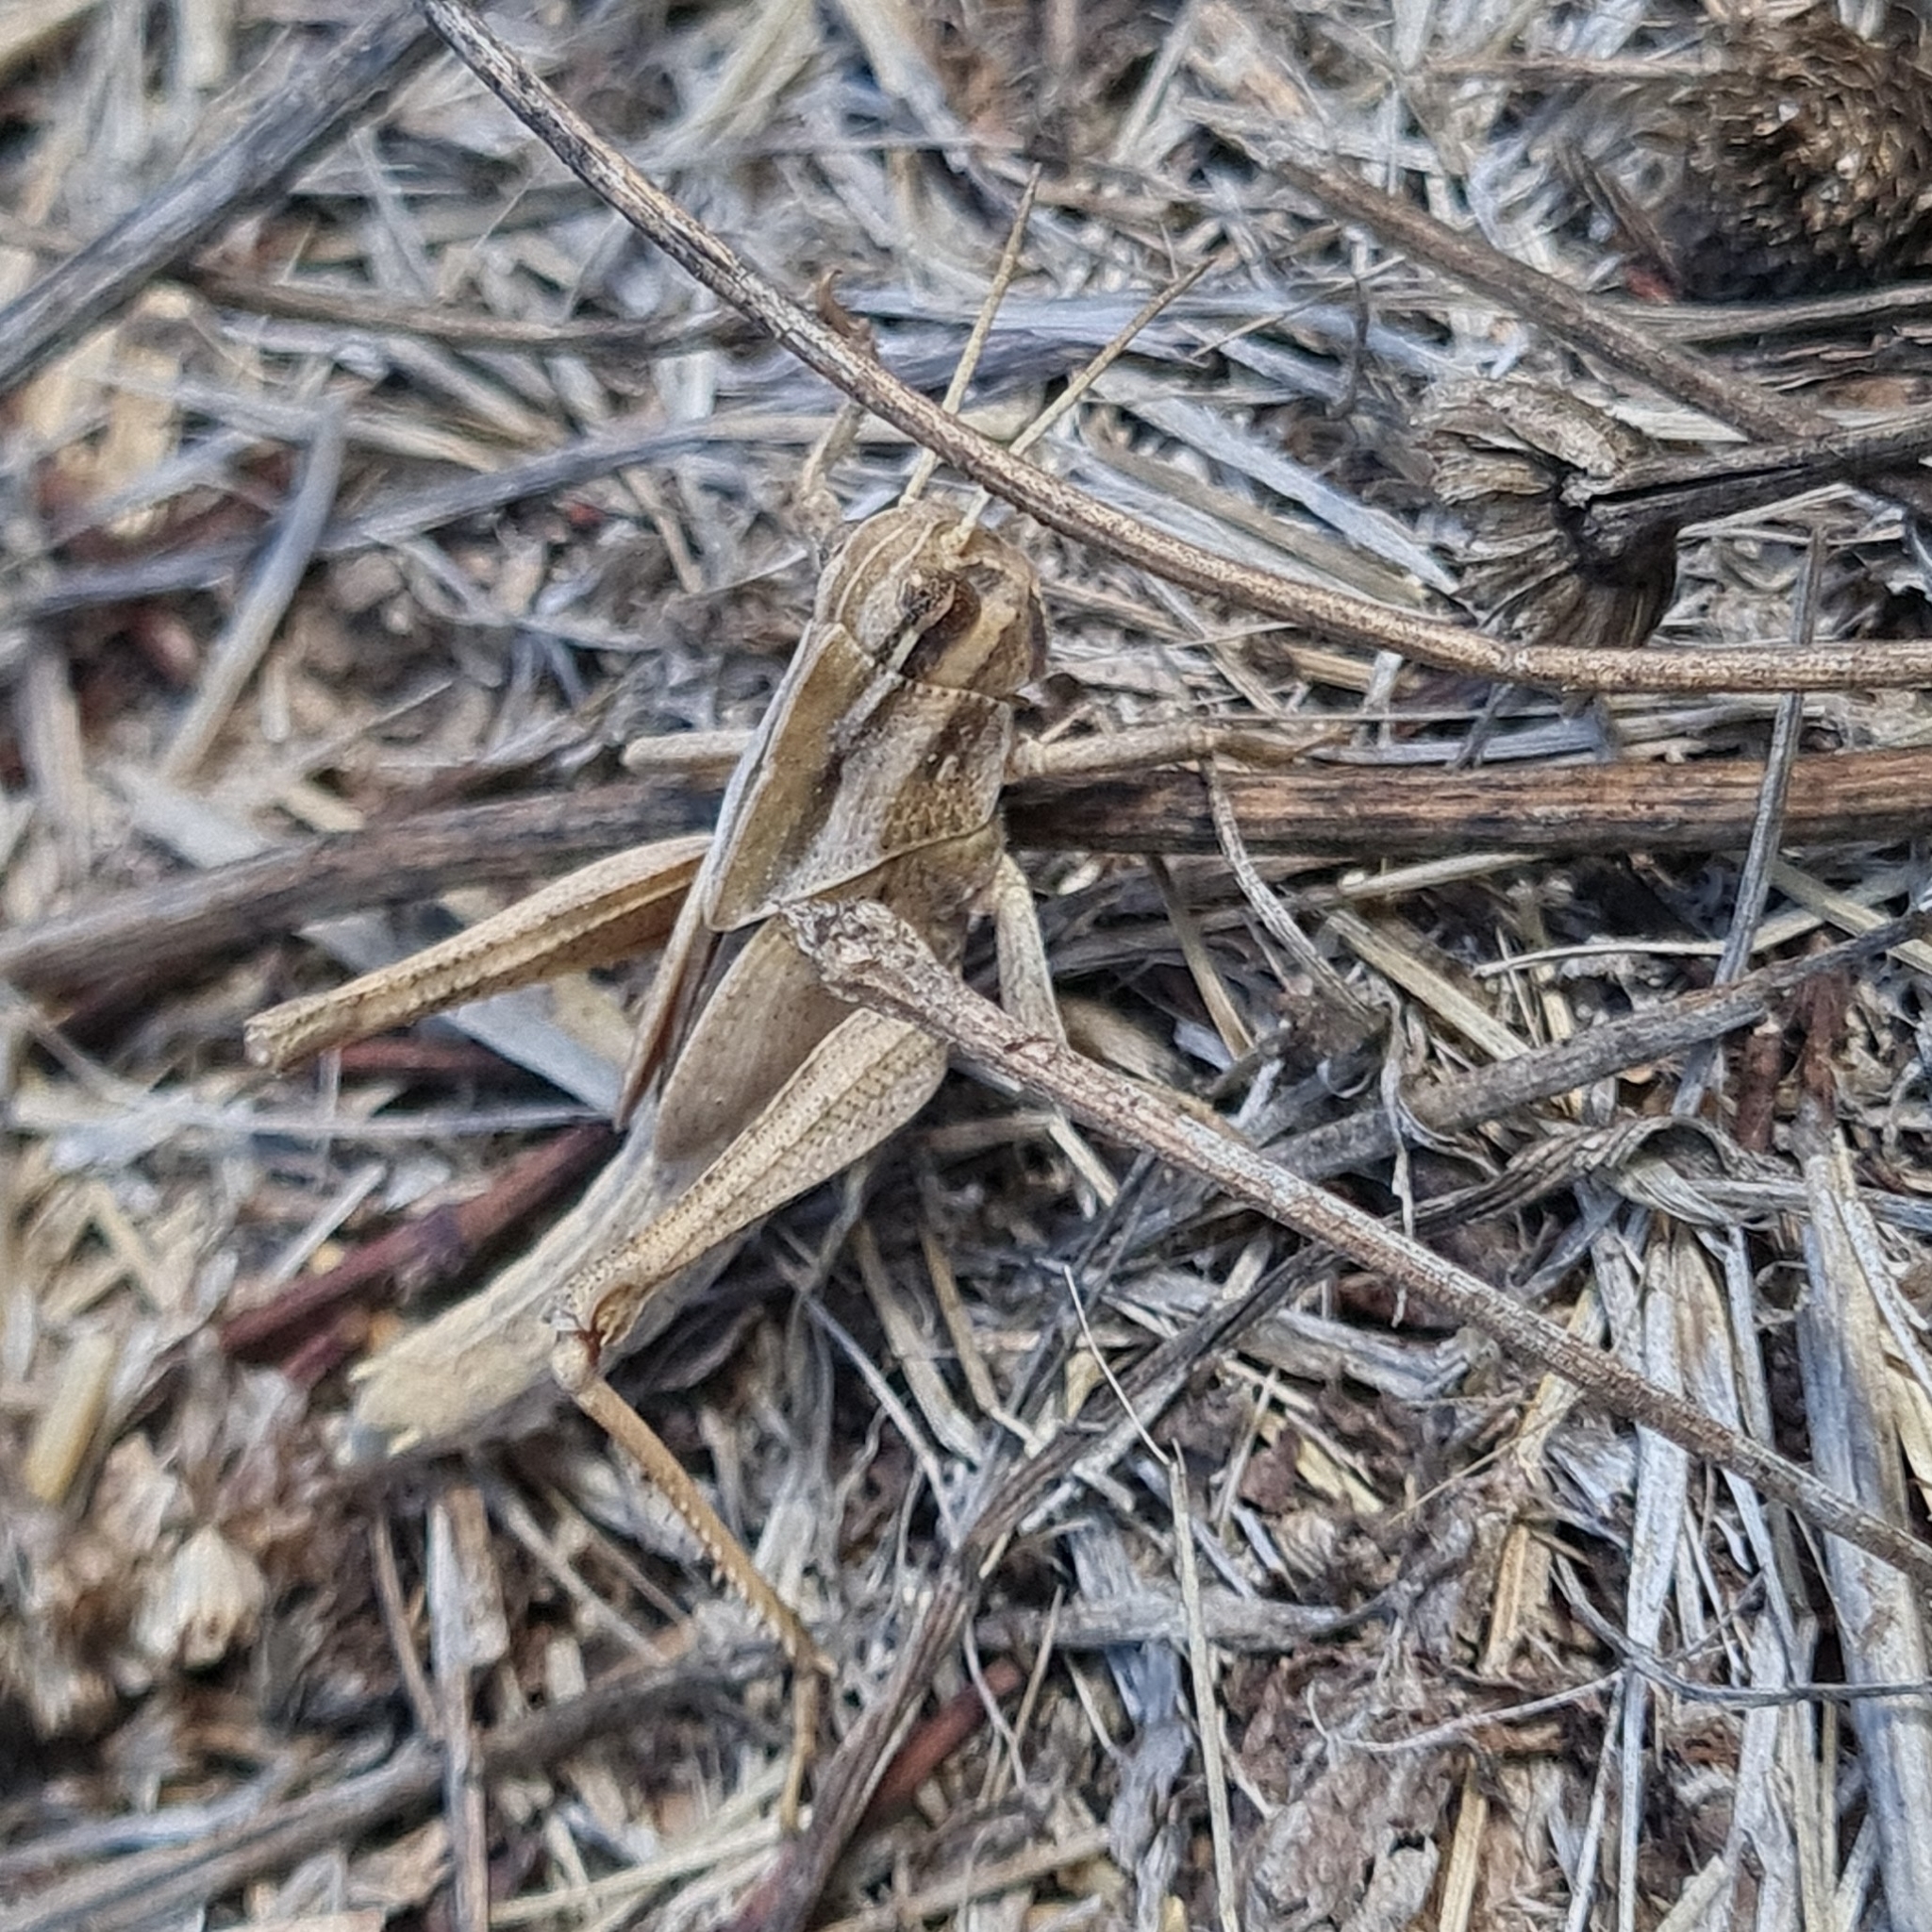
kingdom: Animalia
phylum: Arthropoda
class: Insecta
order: Orthoptera
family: Acrididae
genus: Locusta
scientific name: Locusta migratoria
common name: Migratory locust
